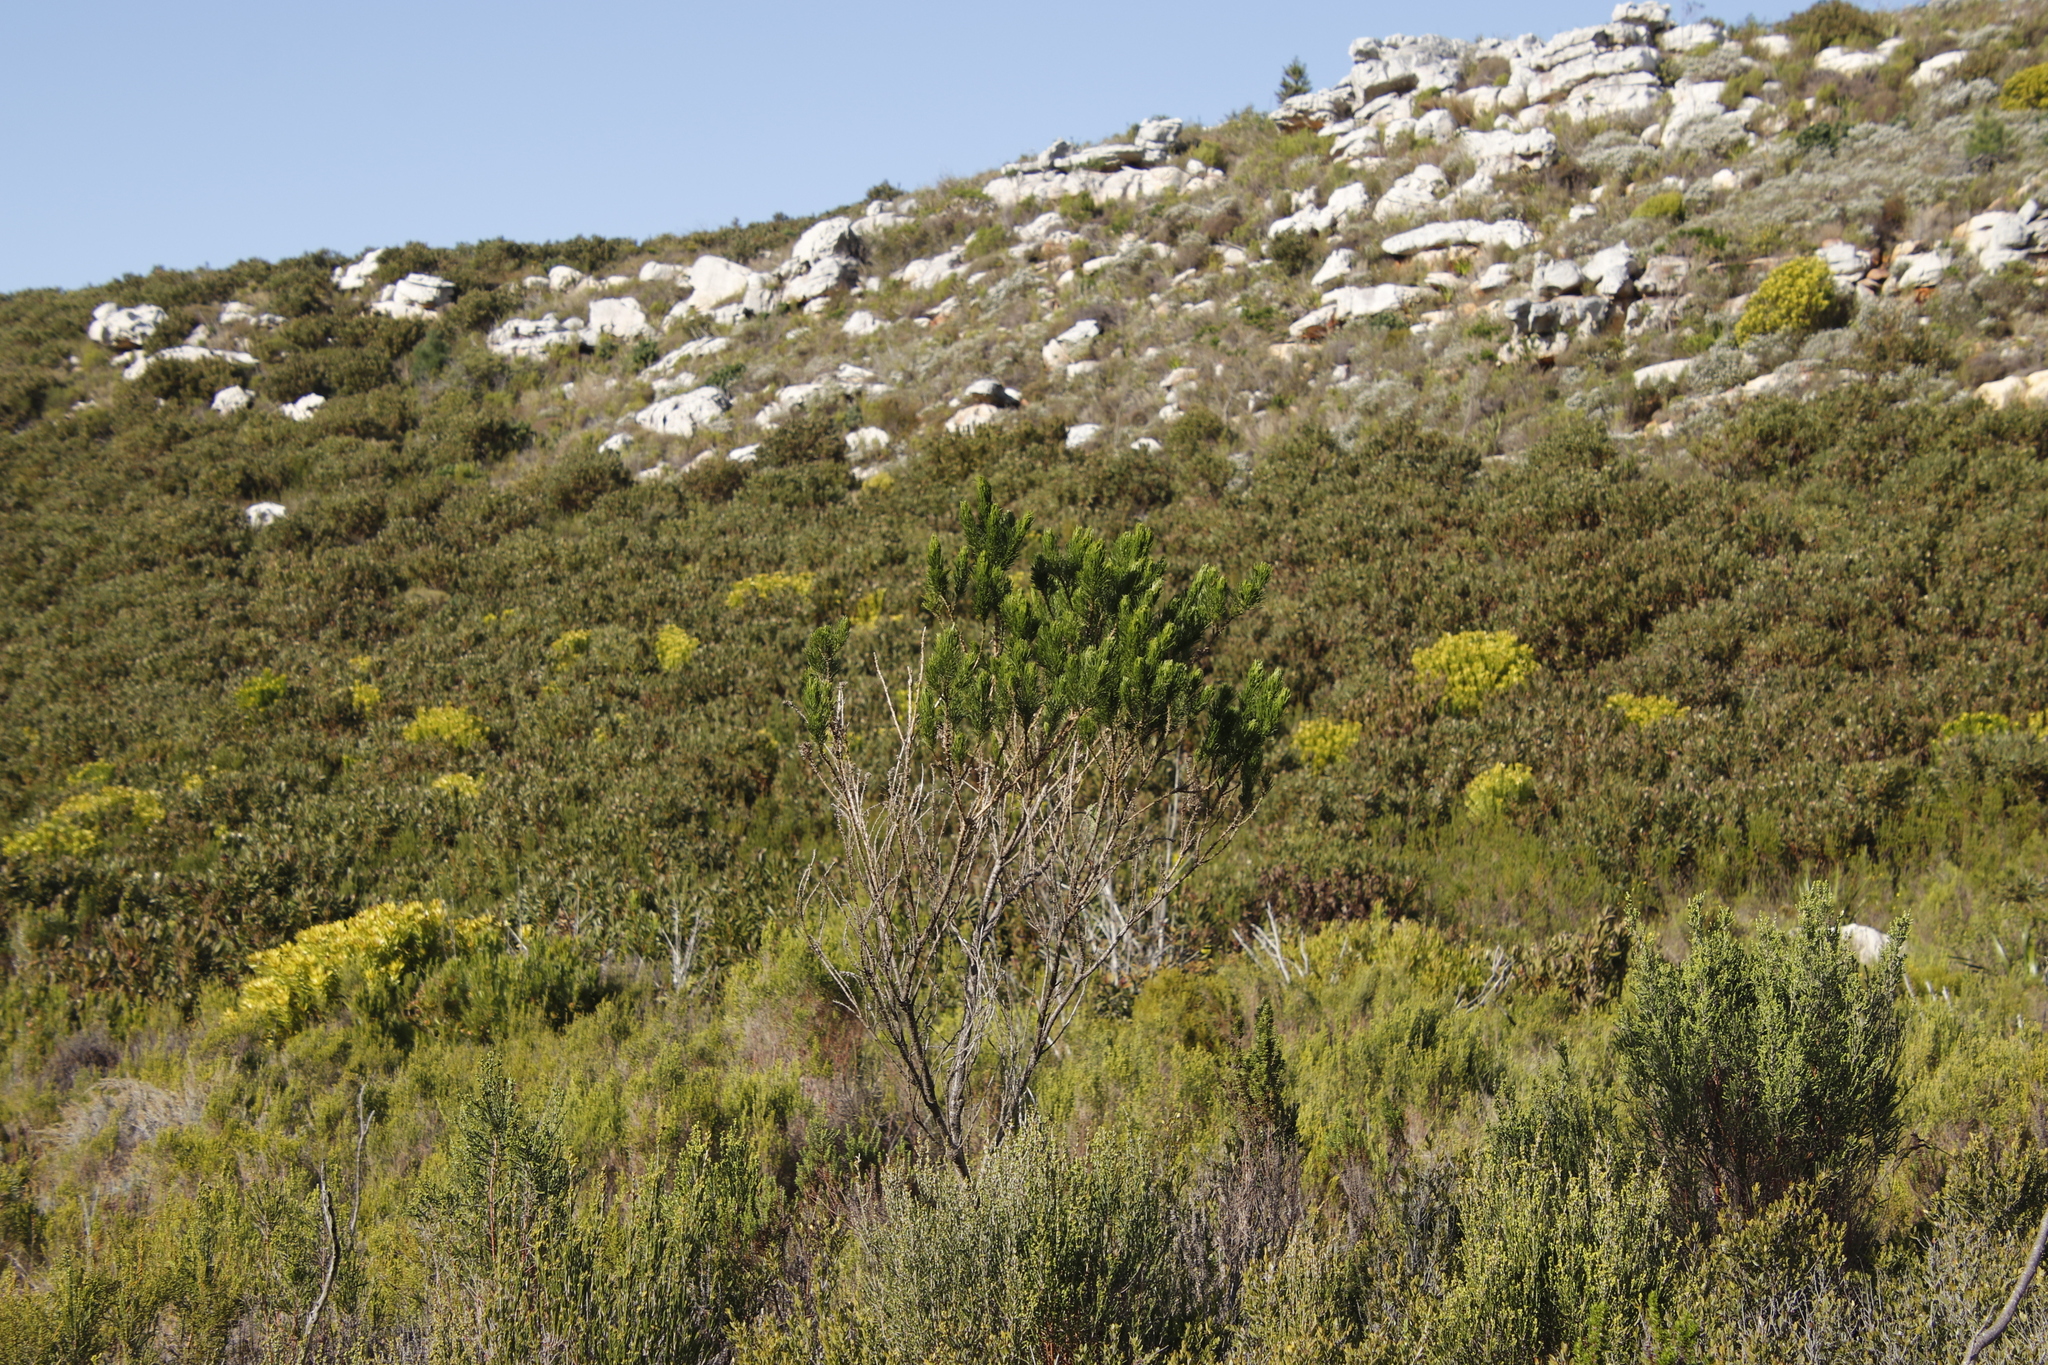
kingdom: Plantae
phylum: Tracheophyta
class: Magnoliopsida
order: Fabales
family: Fabaceae
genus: Psoralea
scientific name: Psoralea pinnata
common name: African scurfpea
